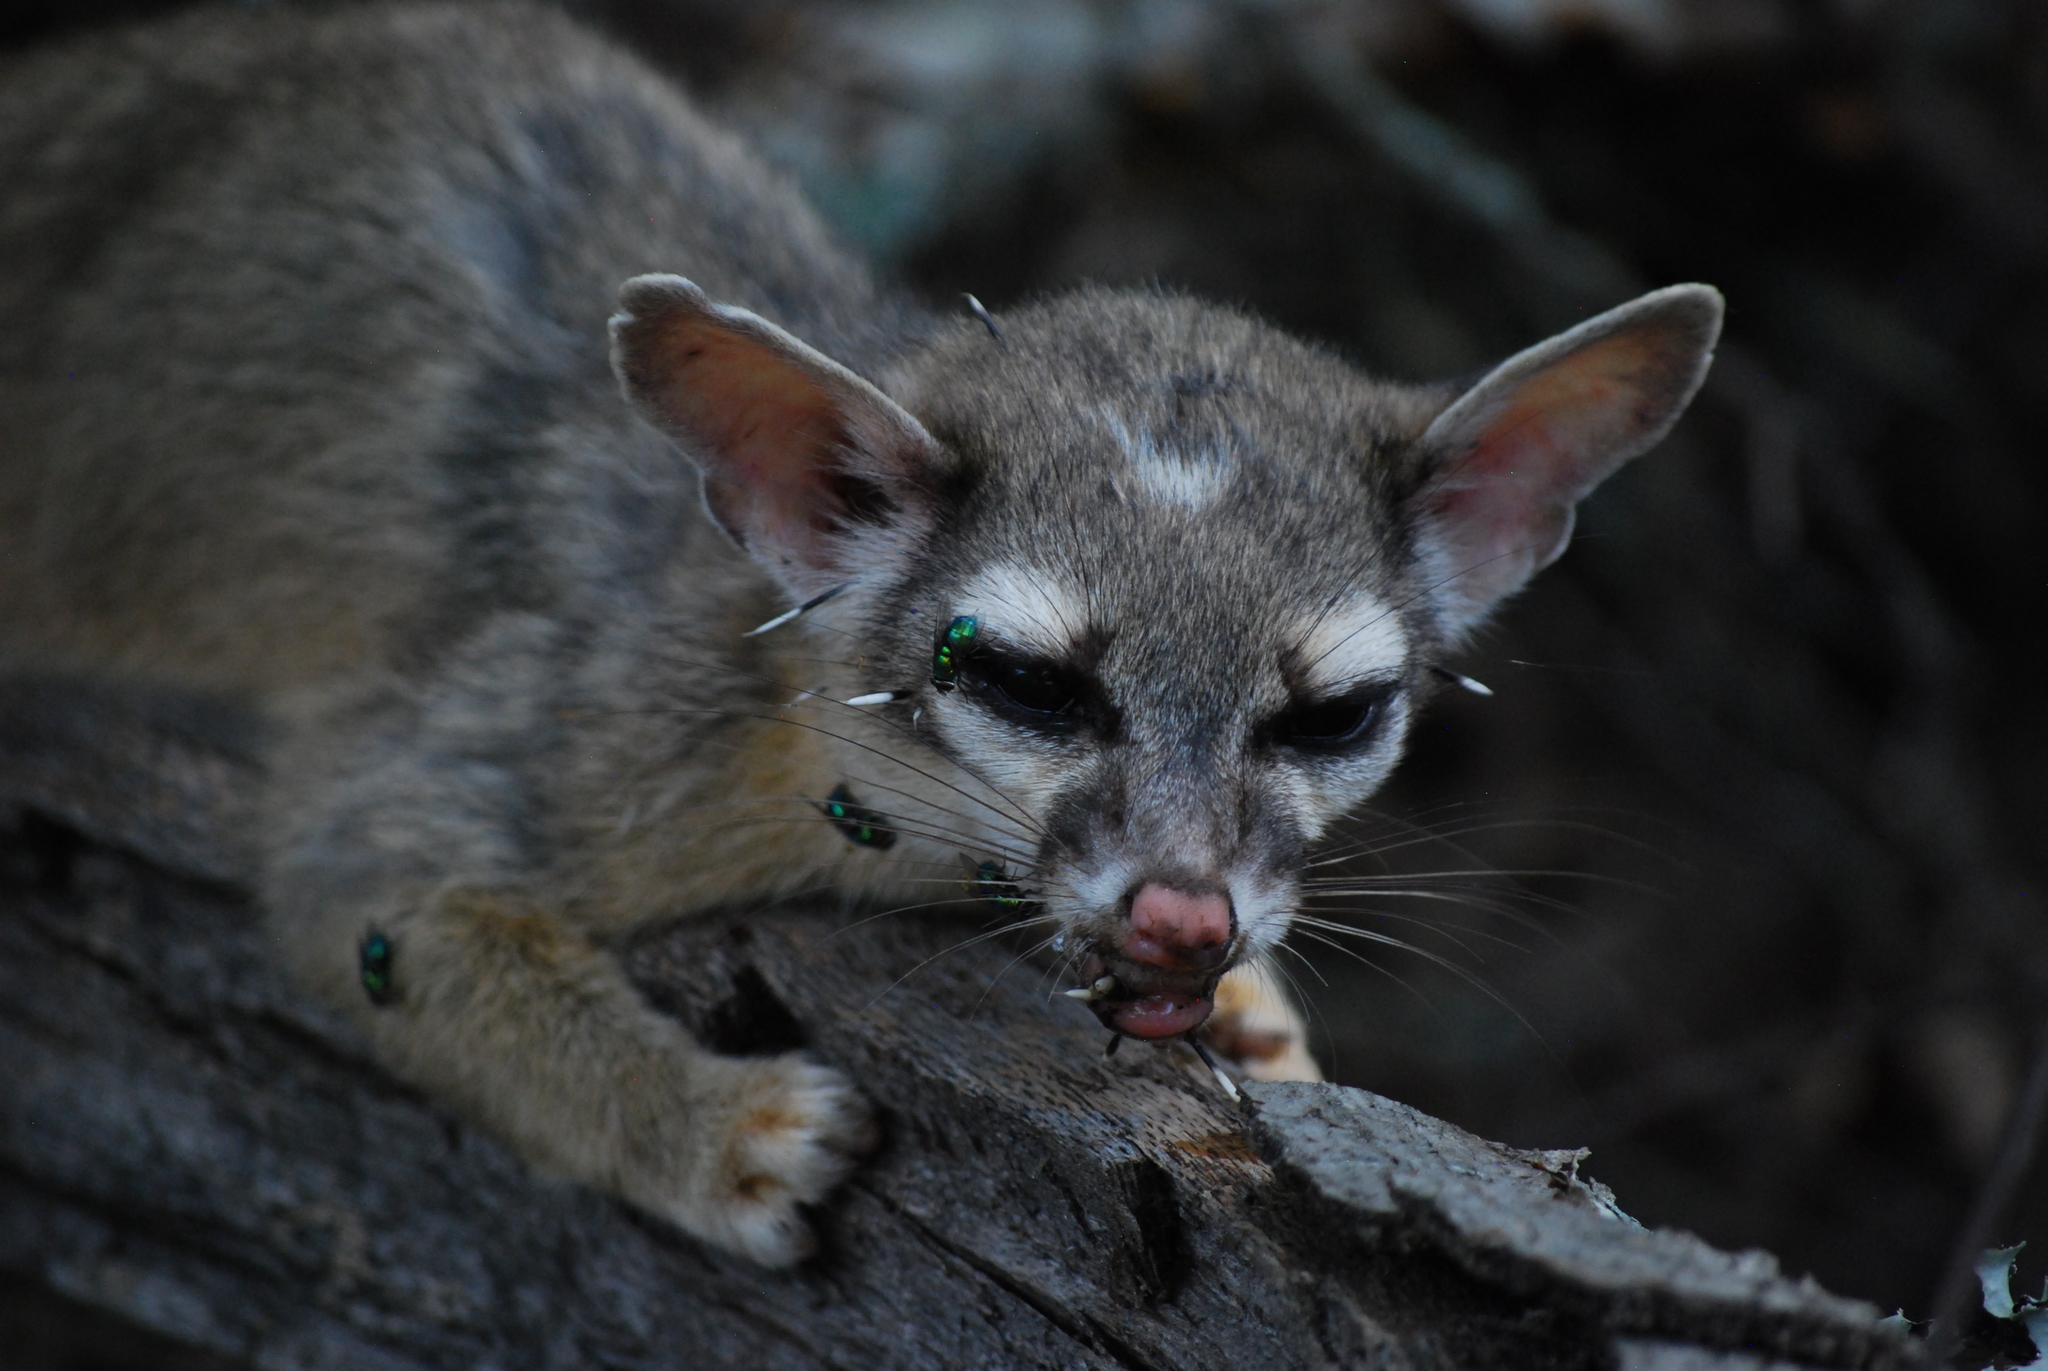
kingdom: Animalia
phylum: Chordata
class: Mammalia
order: Carnivora
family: Procyonidae
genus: Bassariscus
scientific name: Bassariscus astutus
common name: Ringtail
